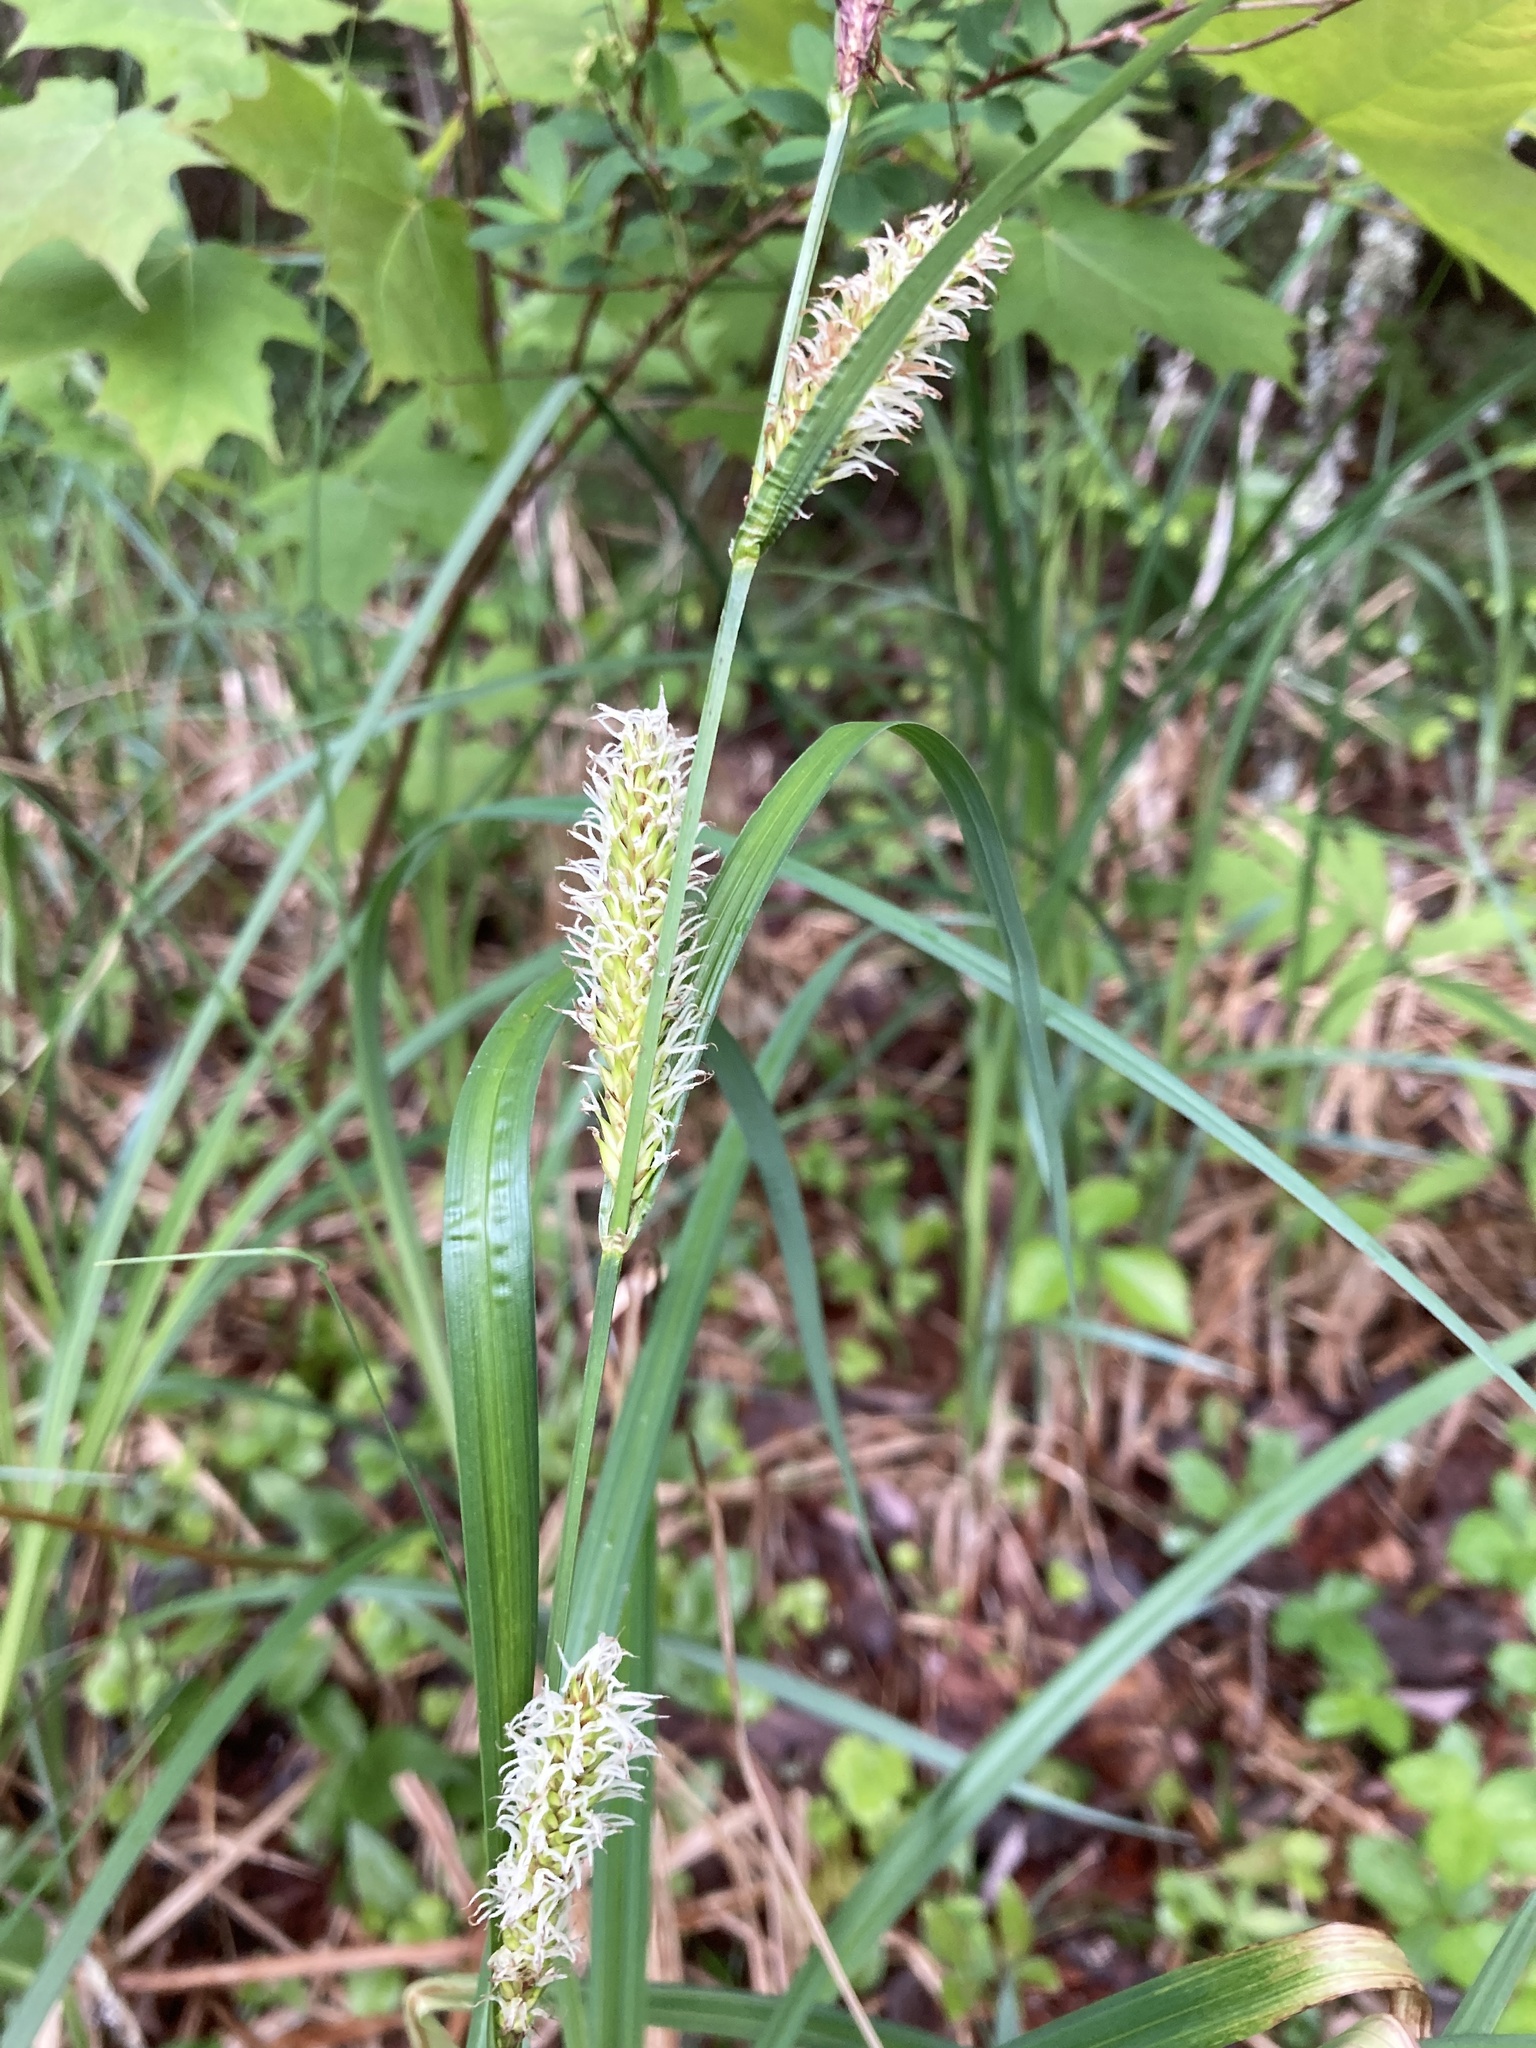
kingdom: Plantae
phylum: Tracheophyta
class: Liliopsida
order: Poales
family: Cyperaceae
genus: Carex
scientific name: Carex lacustris
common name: Common lake sedge
